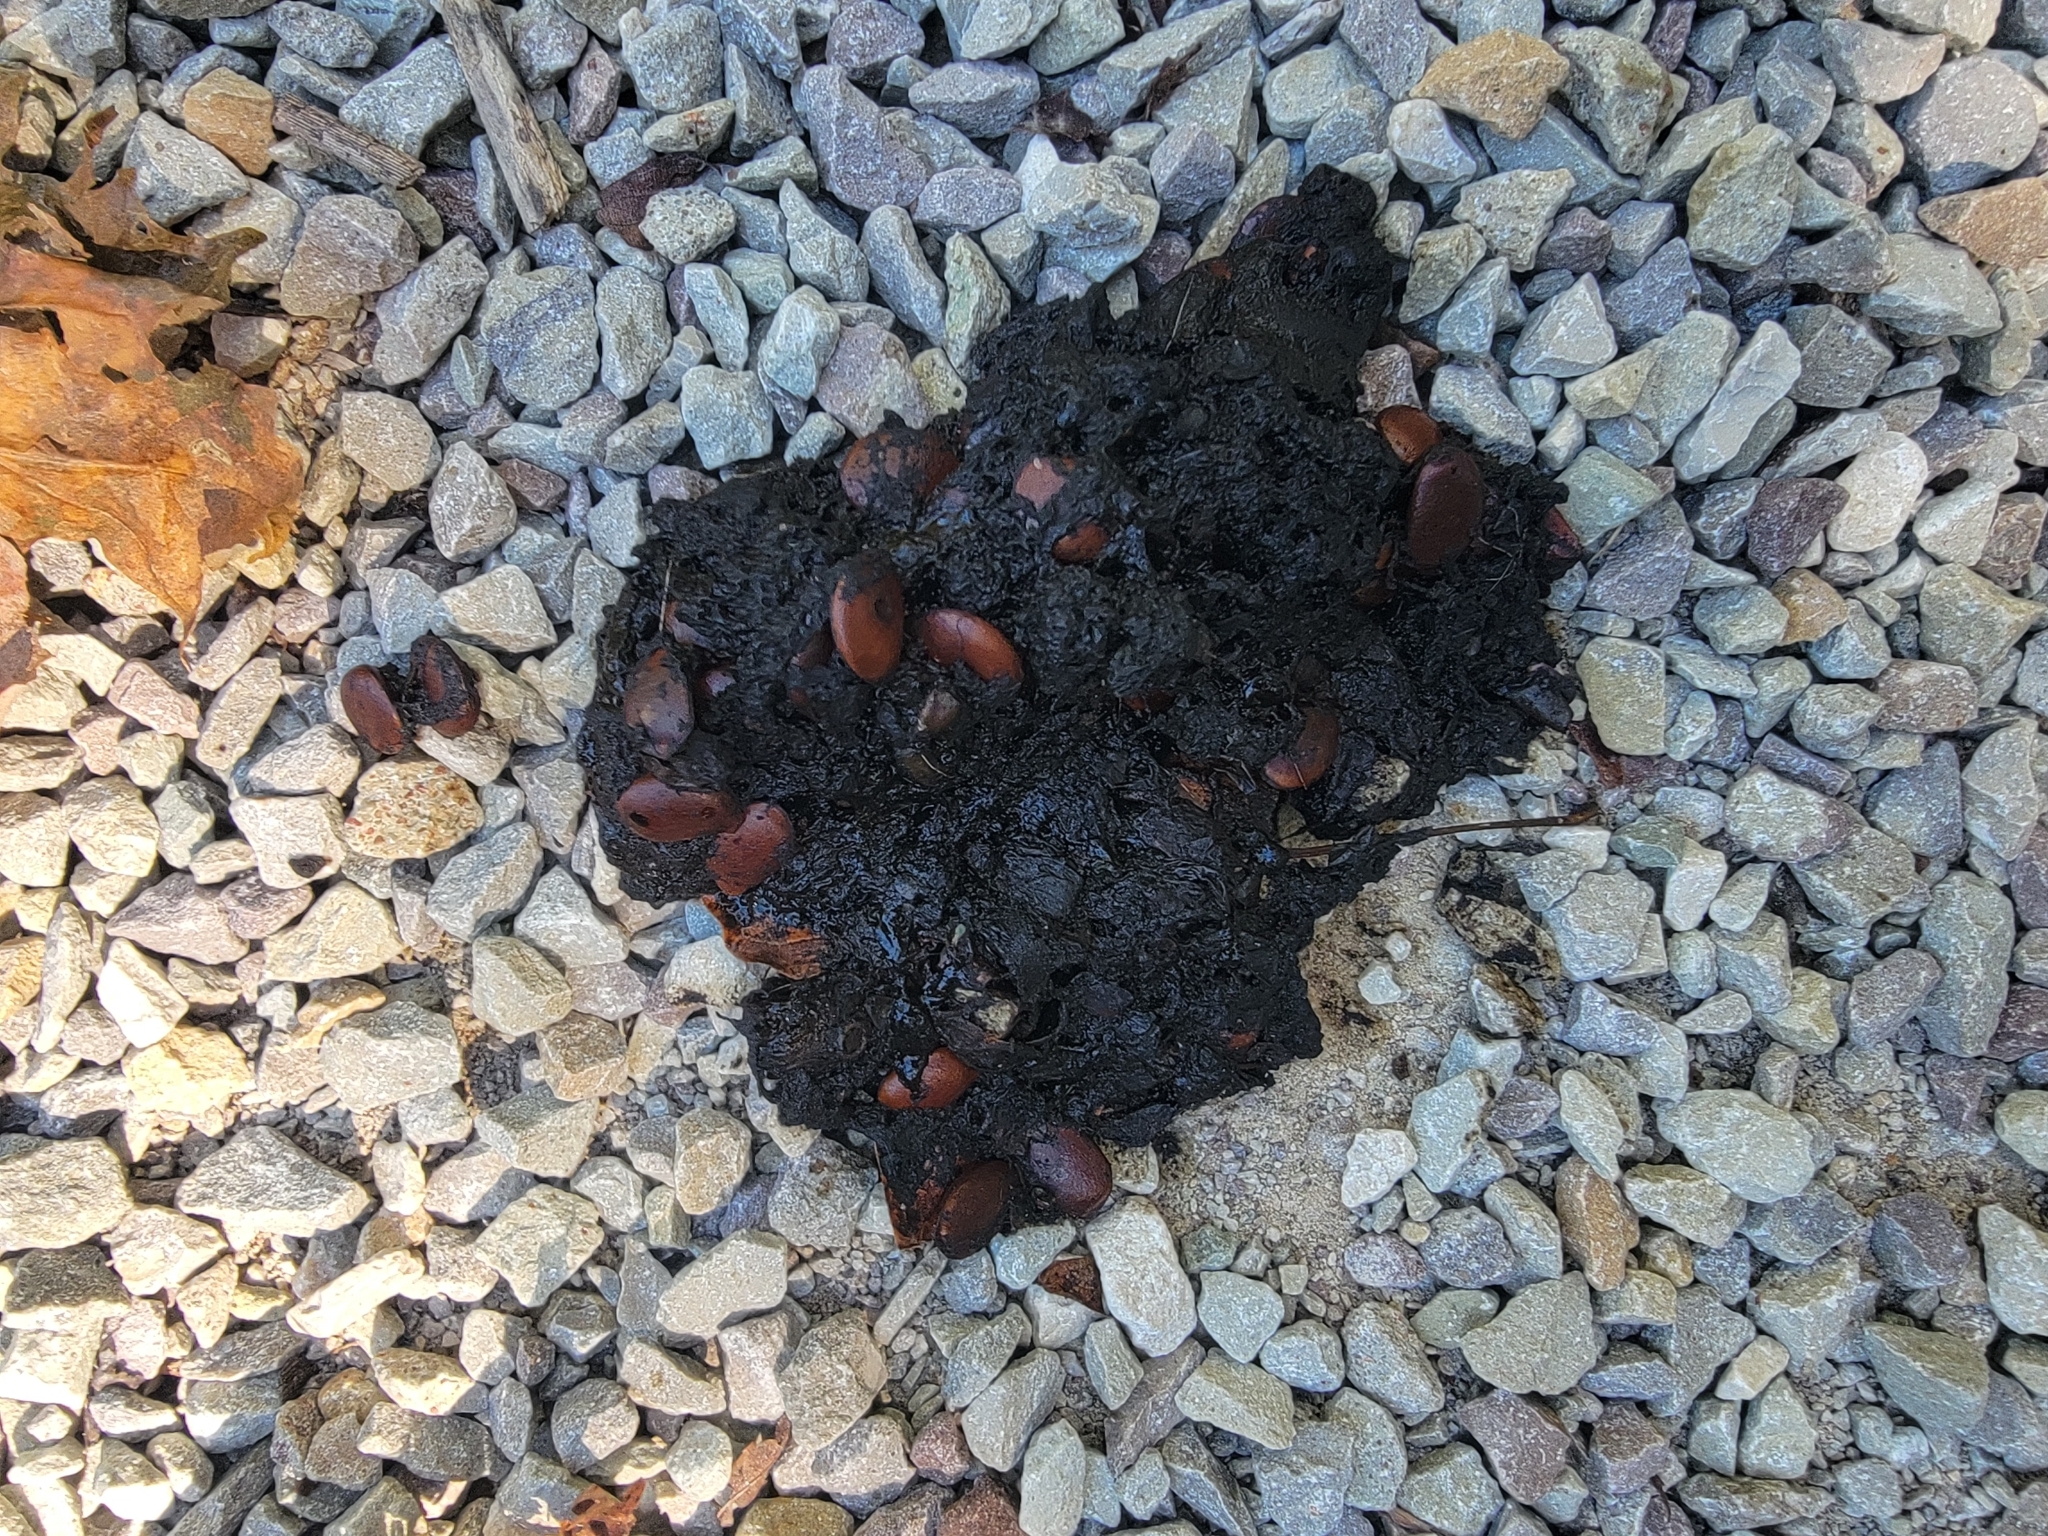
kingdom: Animalia
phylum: Chordata
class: Mammalia
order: Carnivora
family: Ursidae
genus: Ursus
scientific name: Ursus americanus
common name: American black bear
